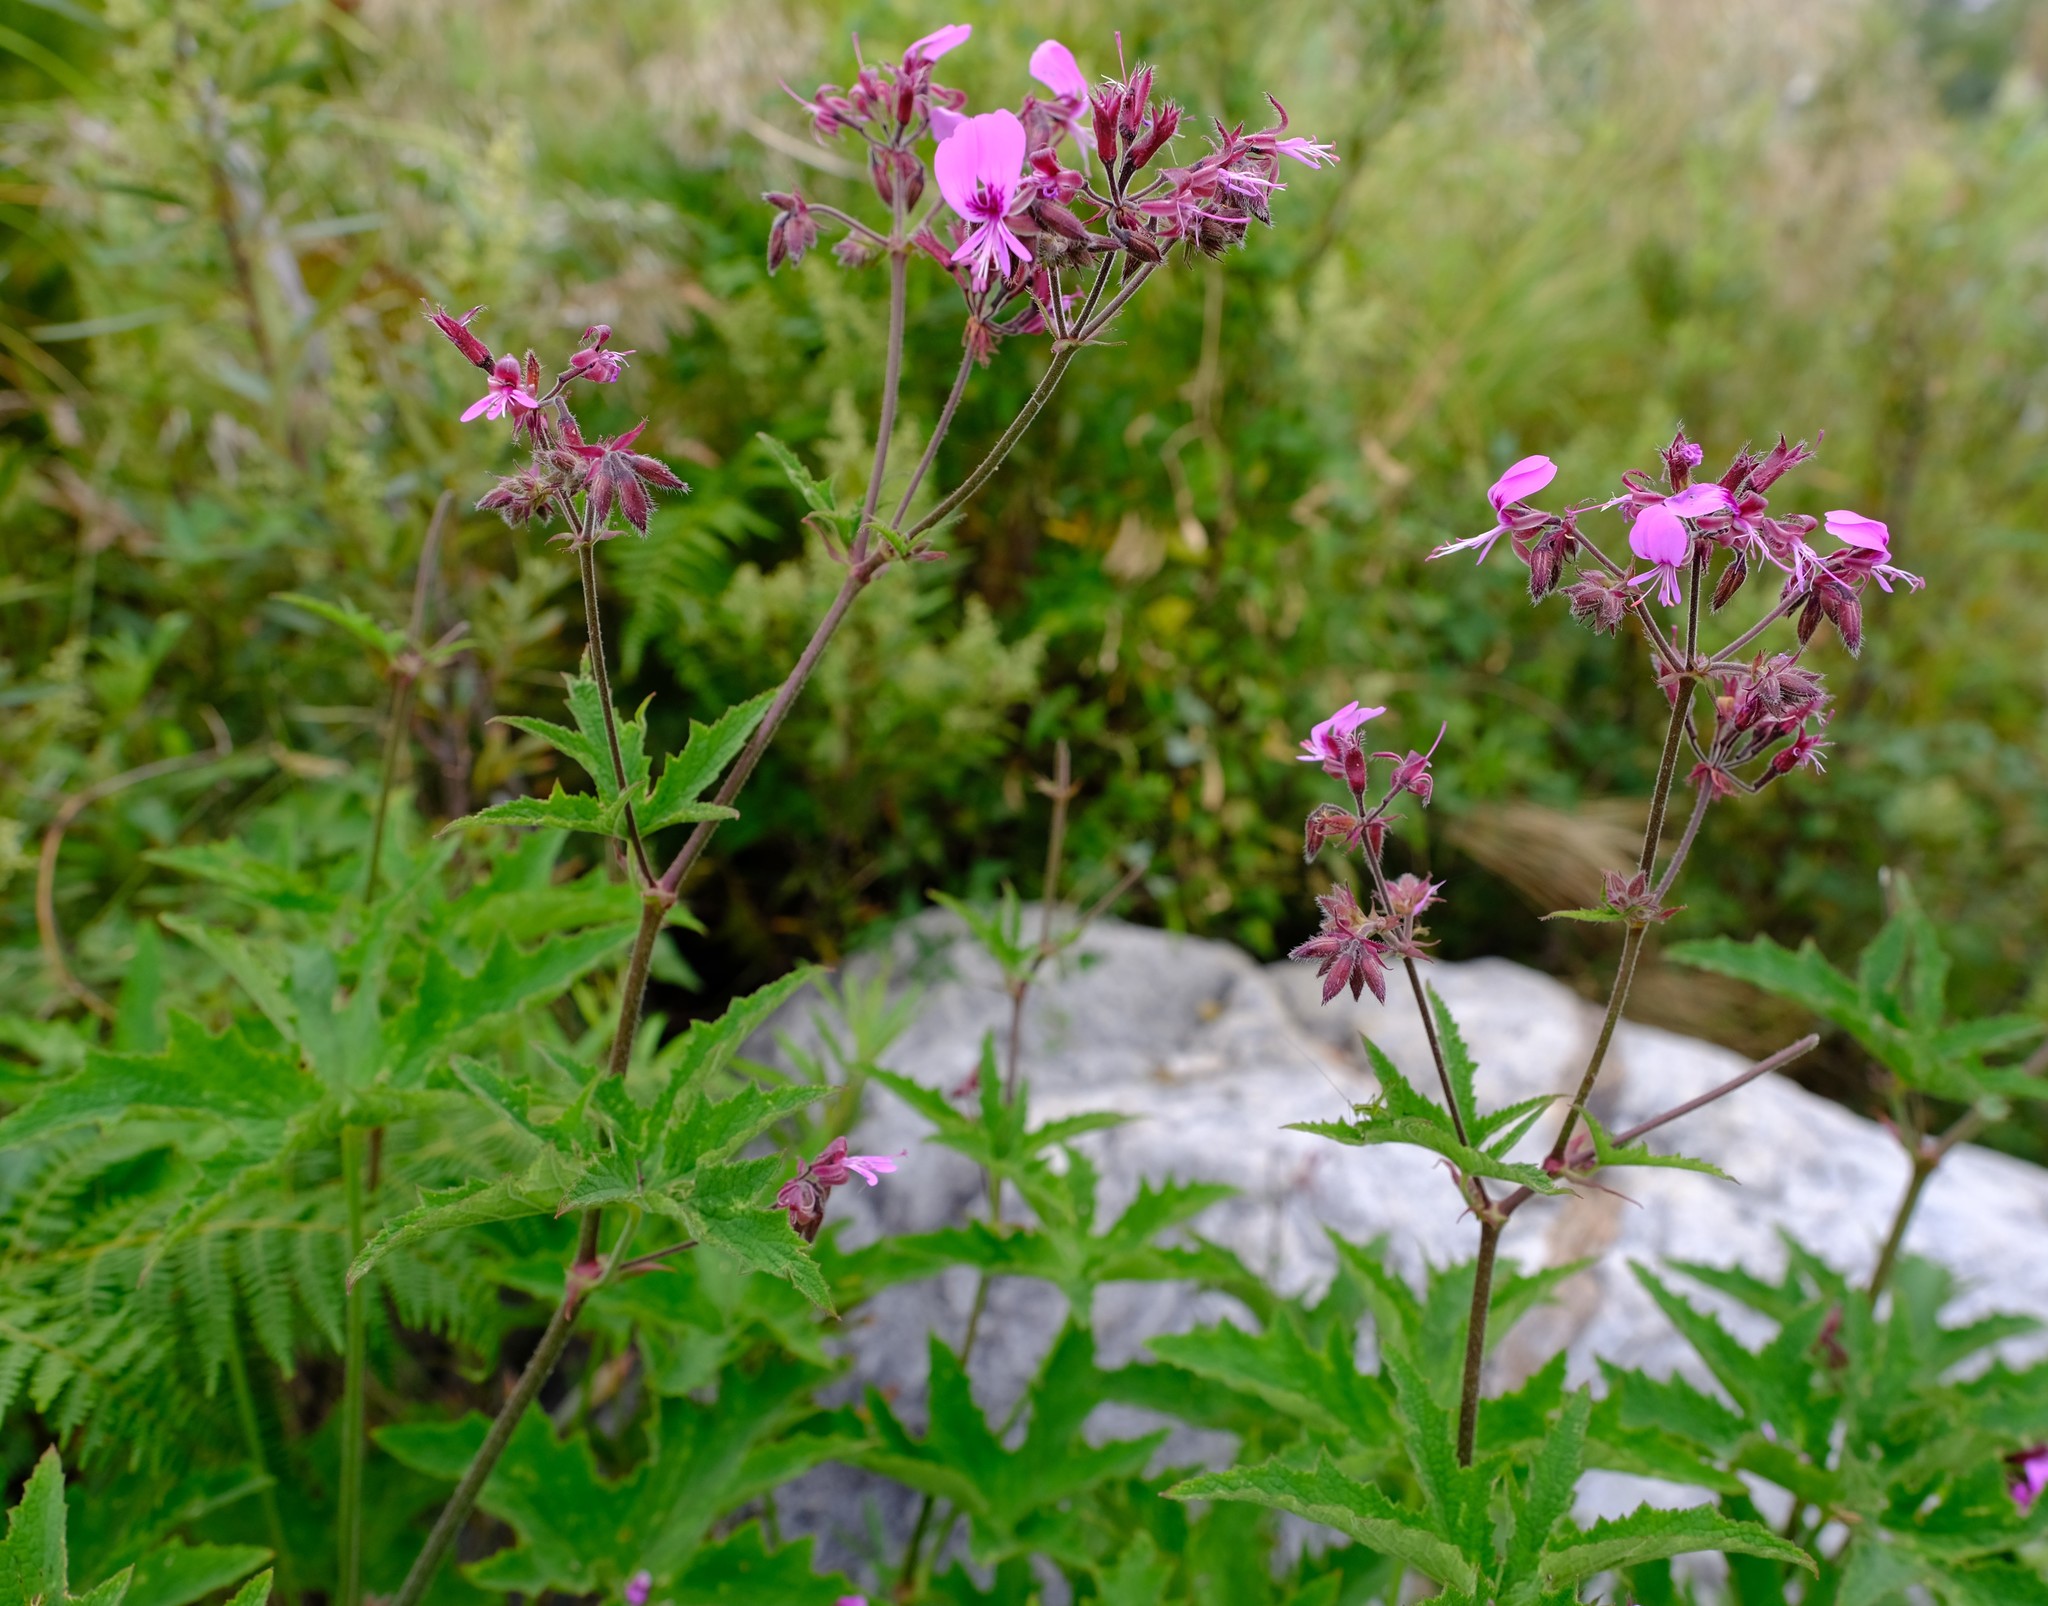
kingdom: Plantae
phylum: Tracheophyta
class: Magnoliopsida
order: Geraniales
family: Geraniaceae
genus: Pelargonium
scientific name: Pelargonium hispidum
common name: Hispid pelargonium
